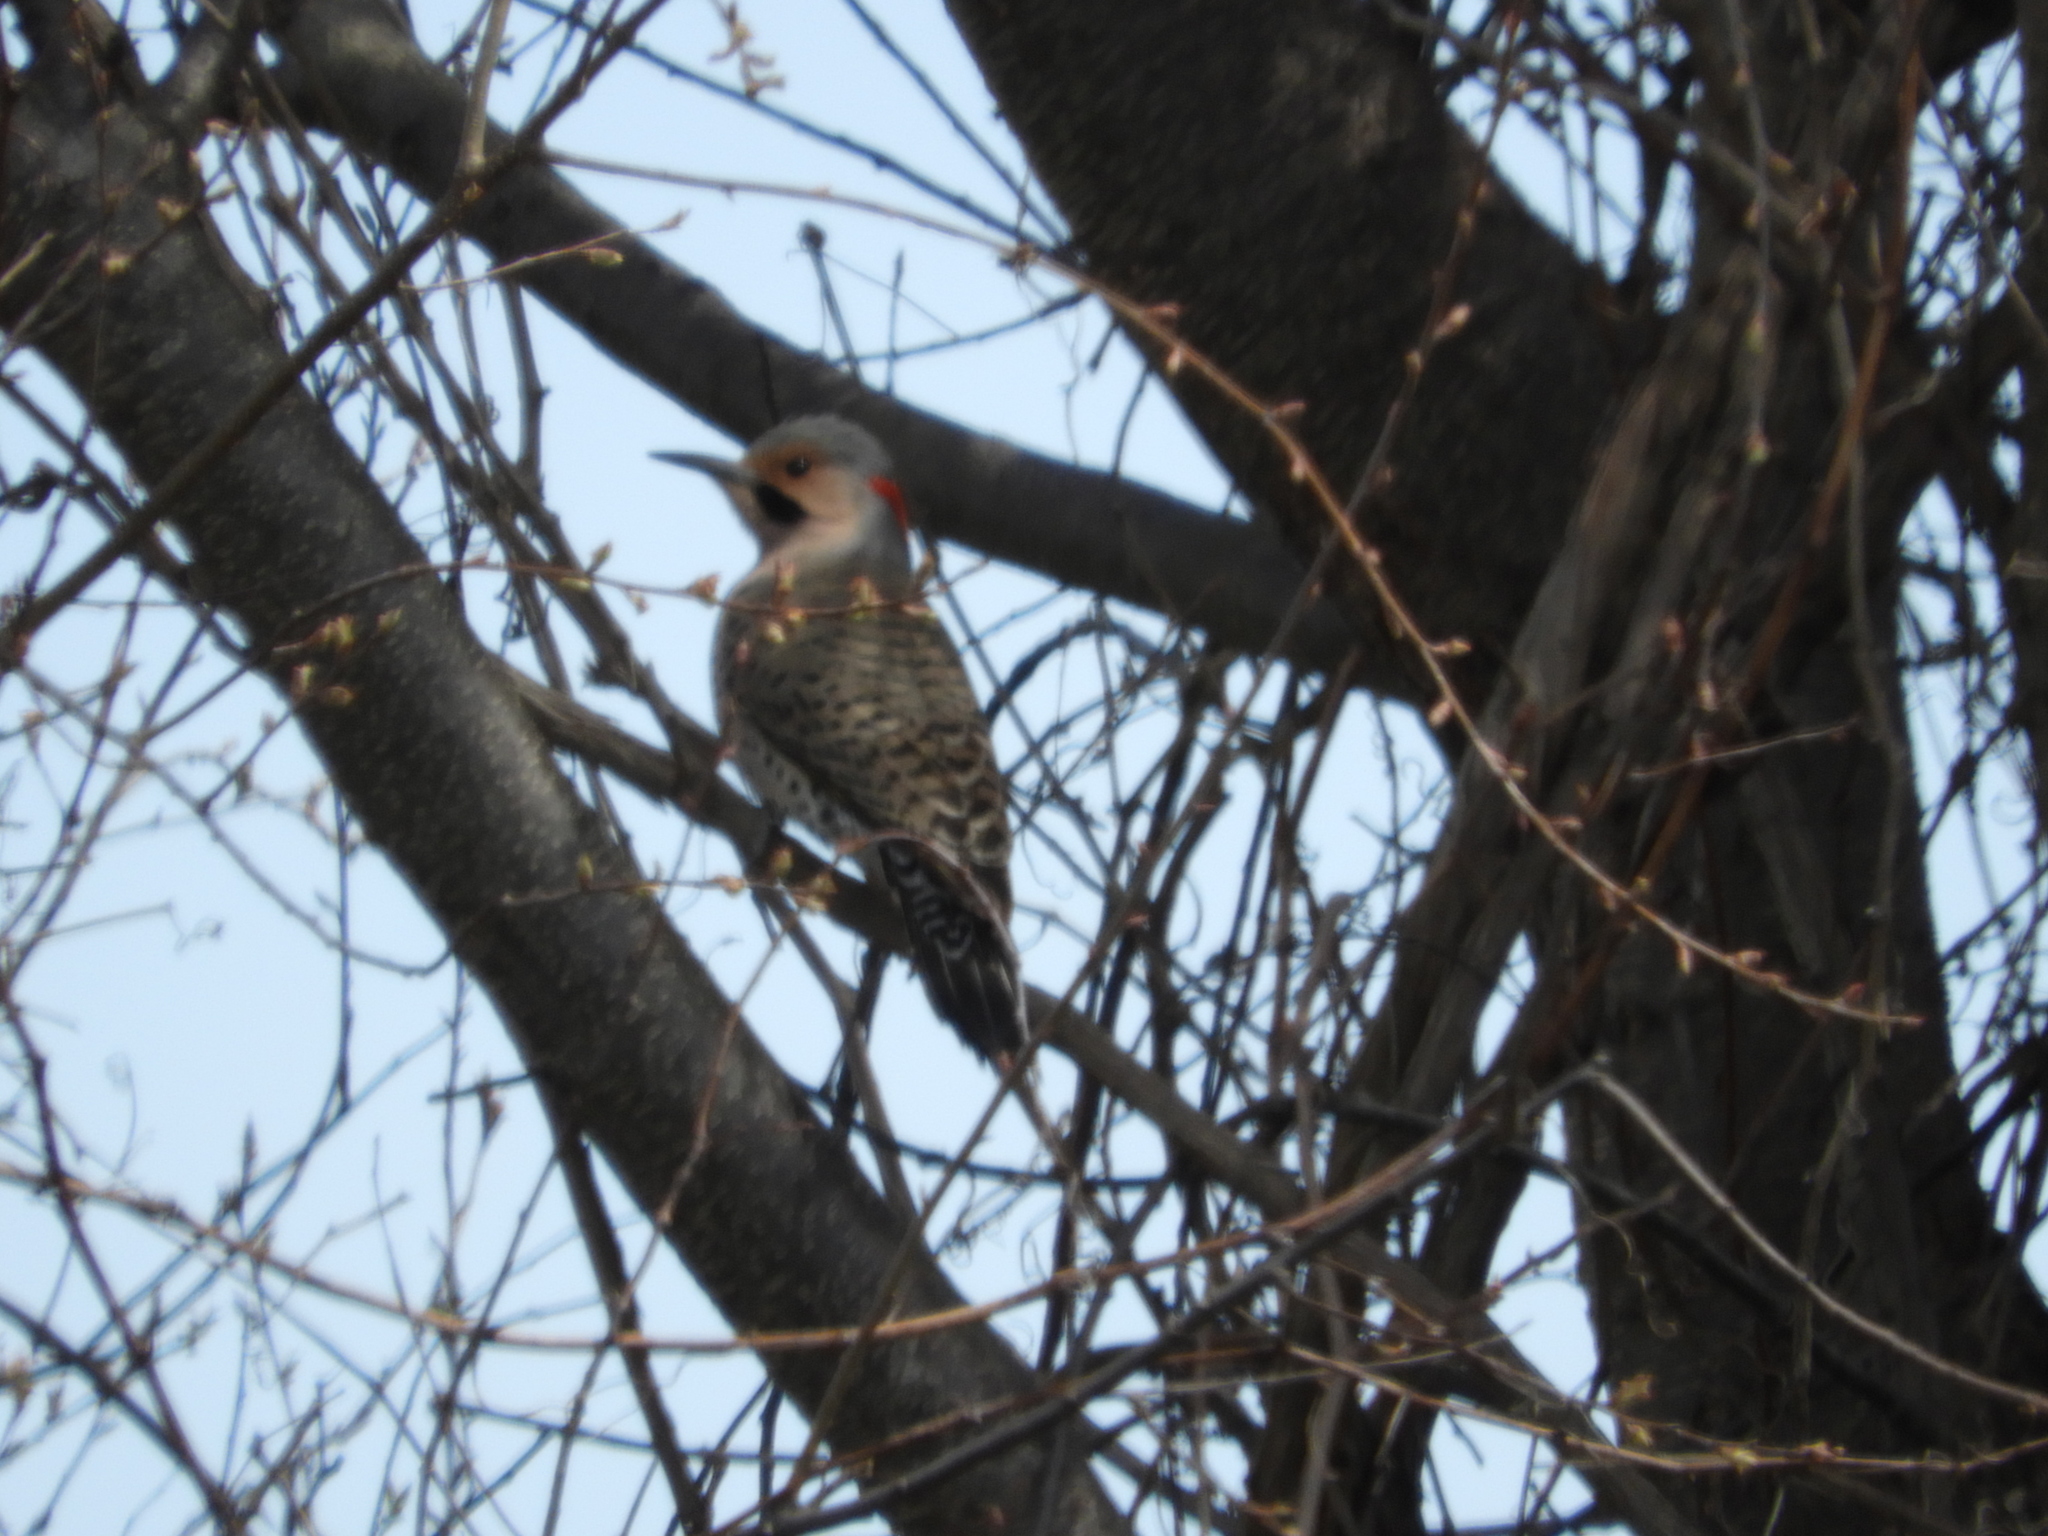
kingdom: Animalia
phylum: Chordata
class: Aves
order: Piciformes
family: Picidae
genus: Colaptes
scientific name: Colaptes auratus
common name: Northern flicker
